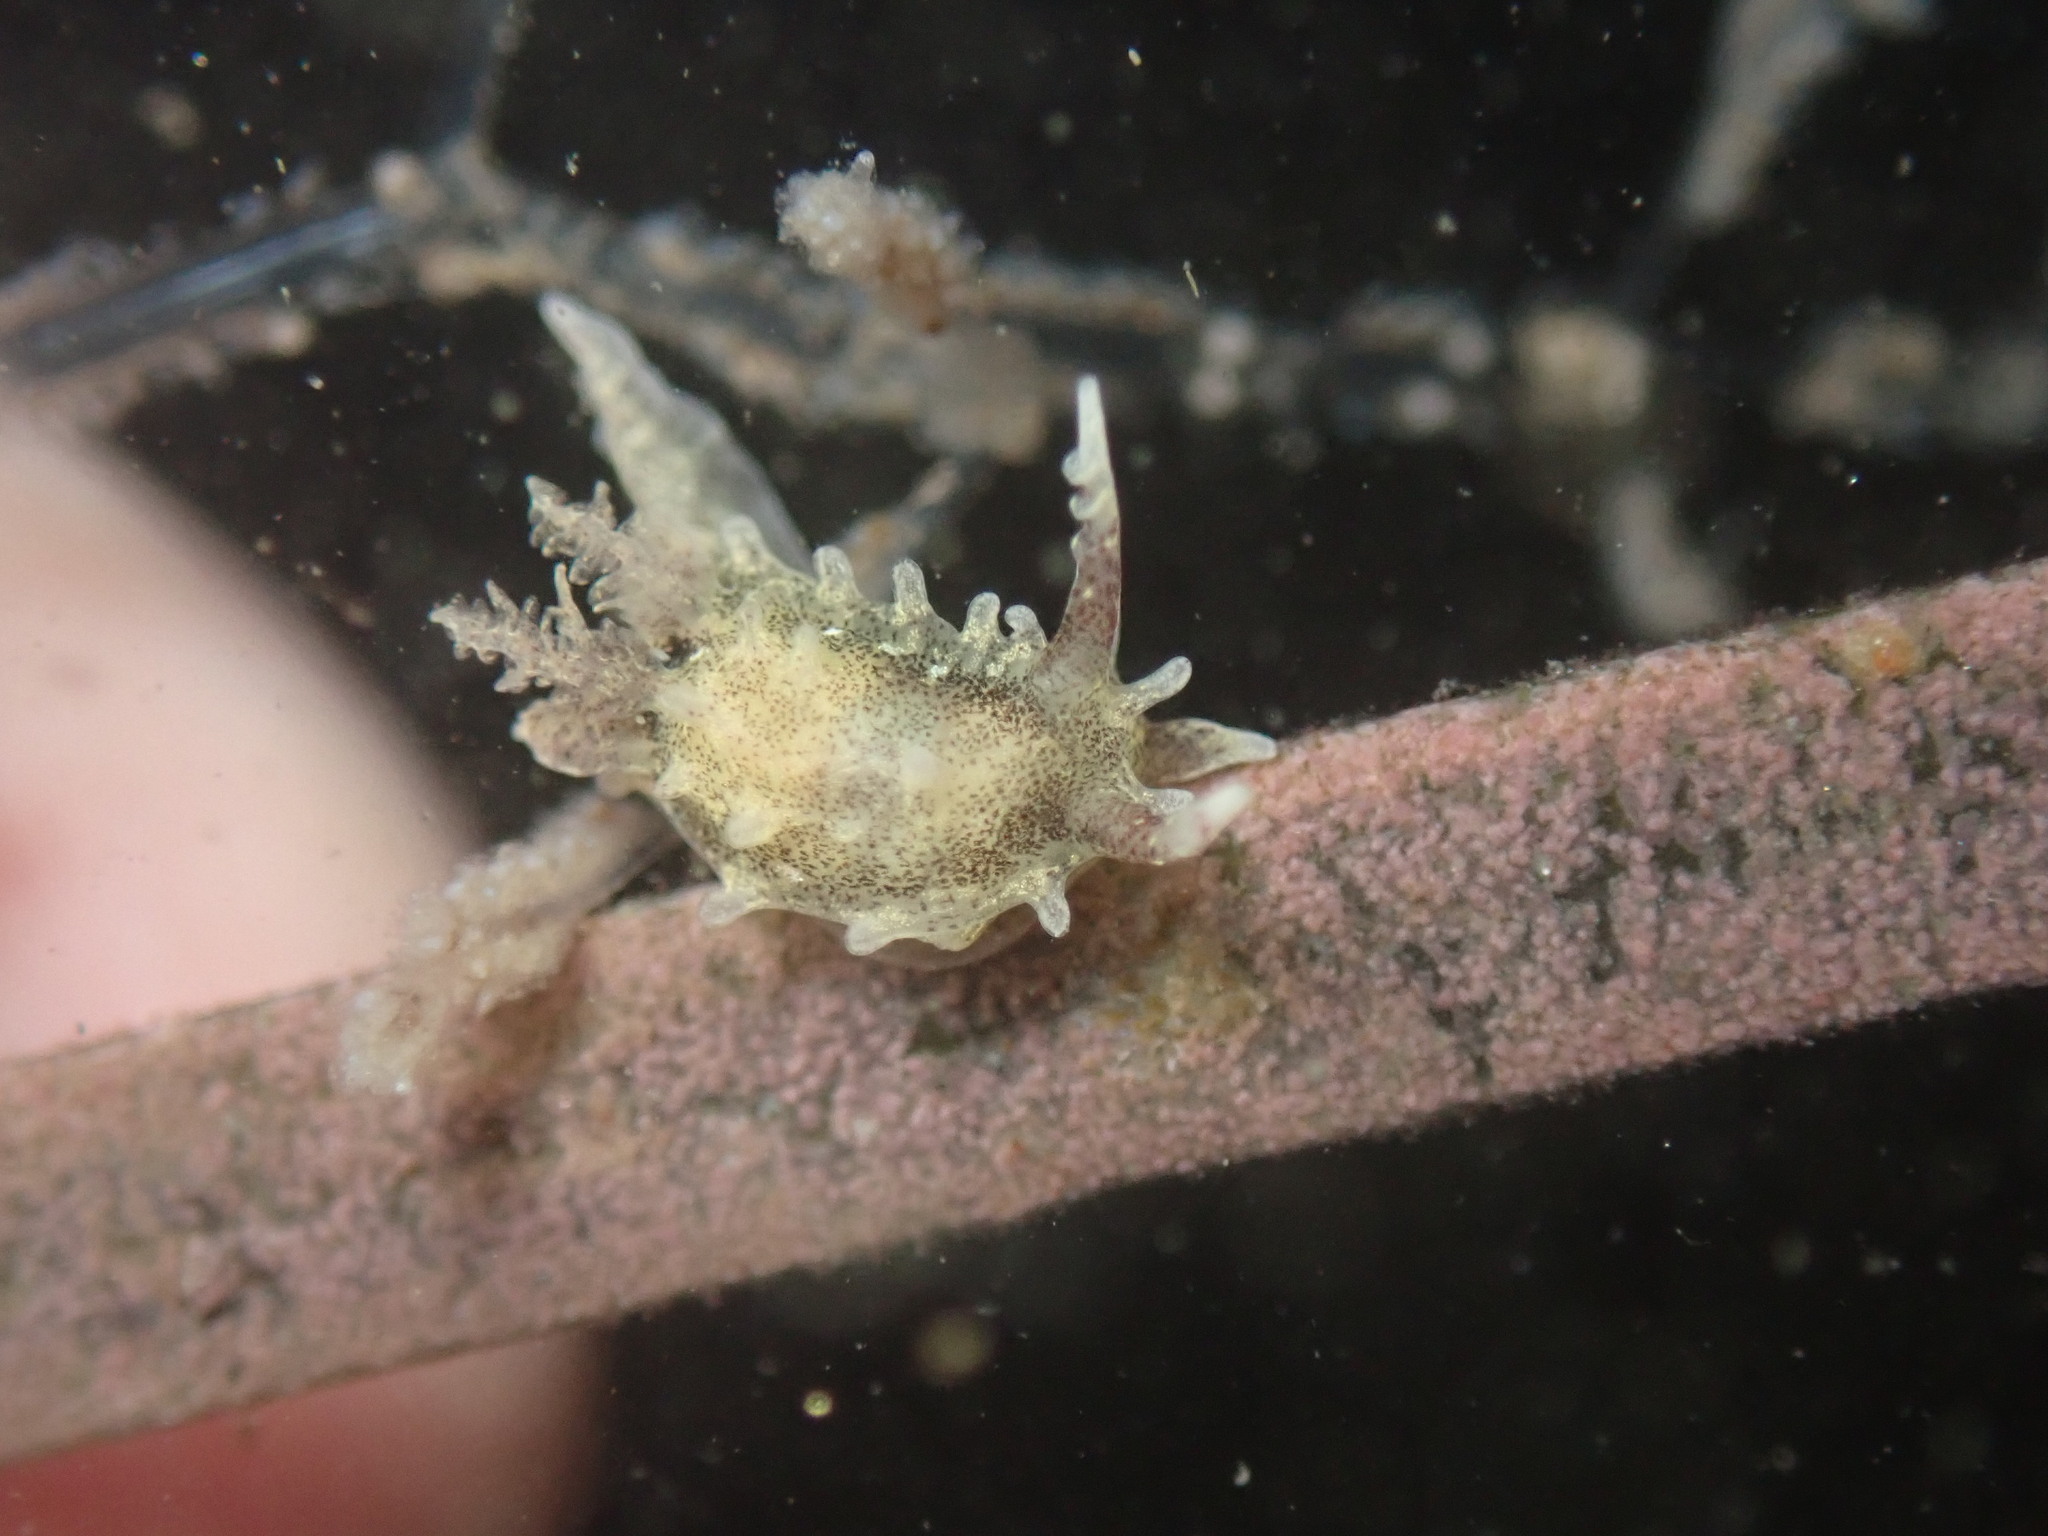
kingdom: Animalia
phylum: Mollusca
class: Gastropoda
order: Nudibranchia
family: Goniodorididae
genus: Okenia
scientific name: Okenia
